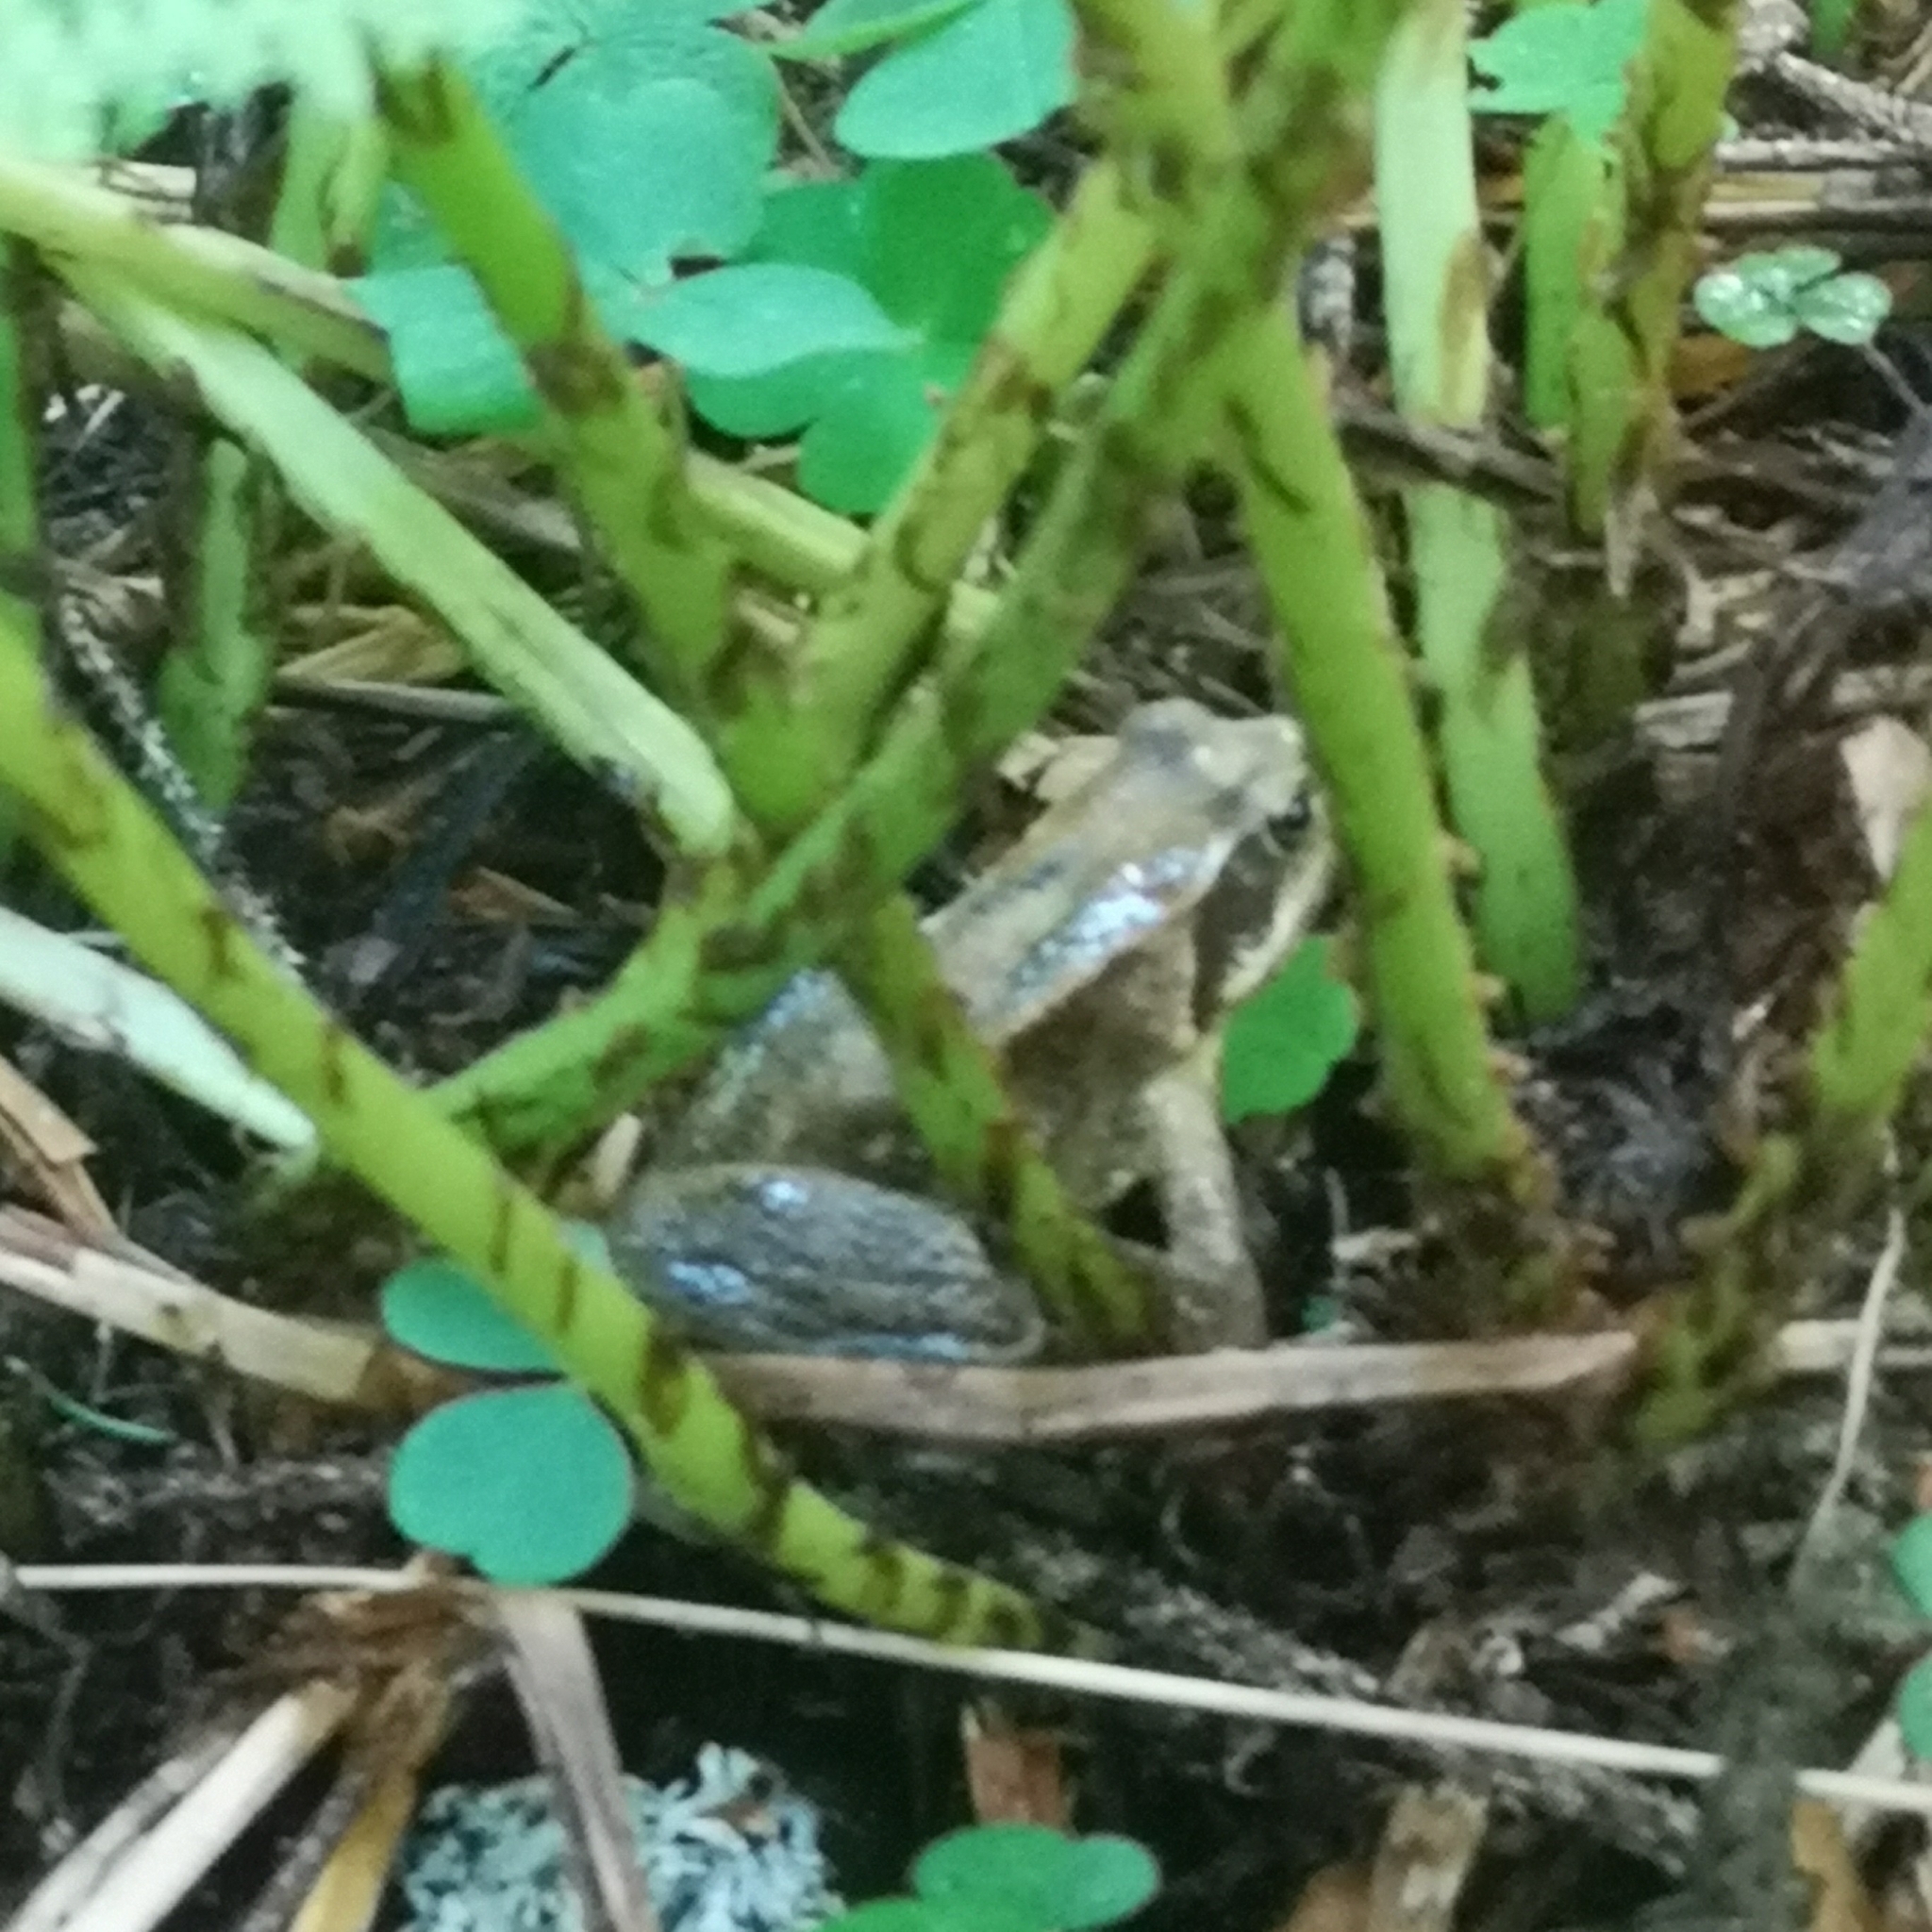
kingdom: Animalia
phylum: Chordata
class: Amphibia
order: Anura
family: Ranidae
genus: Rana
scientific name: Rana temporaria
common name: Common frog
